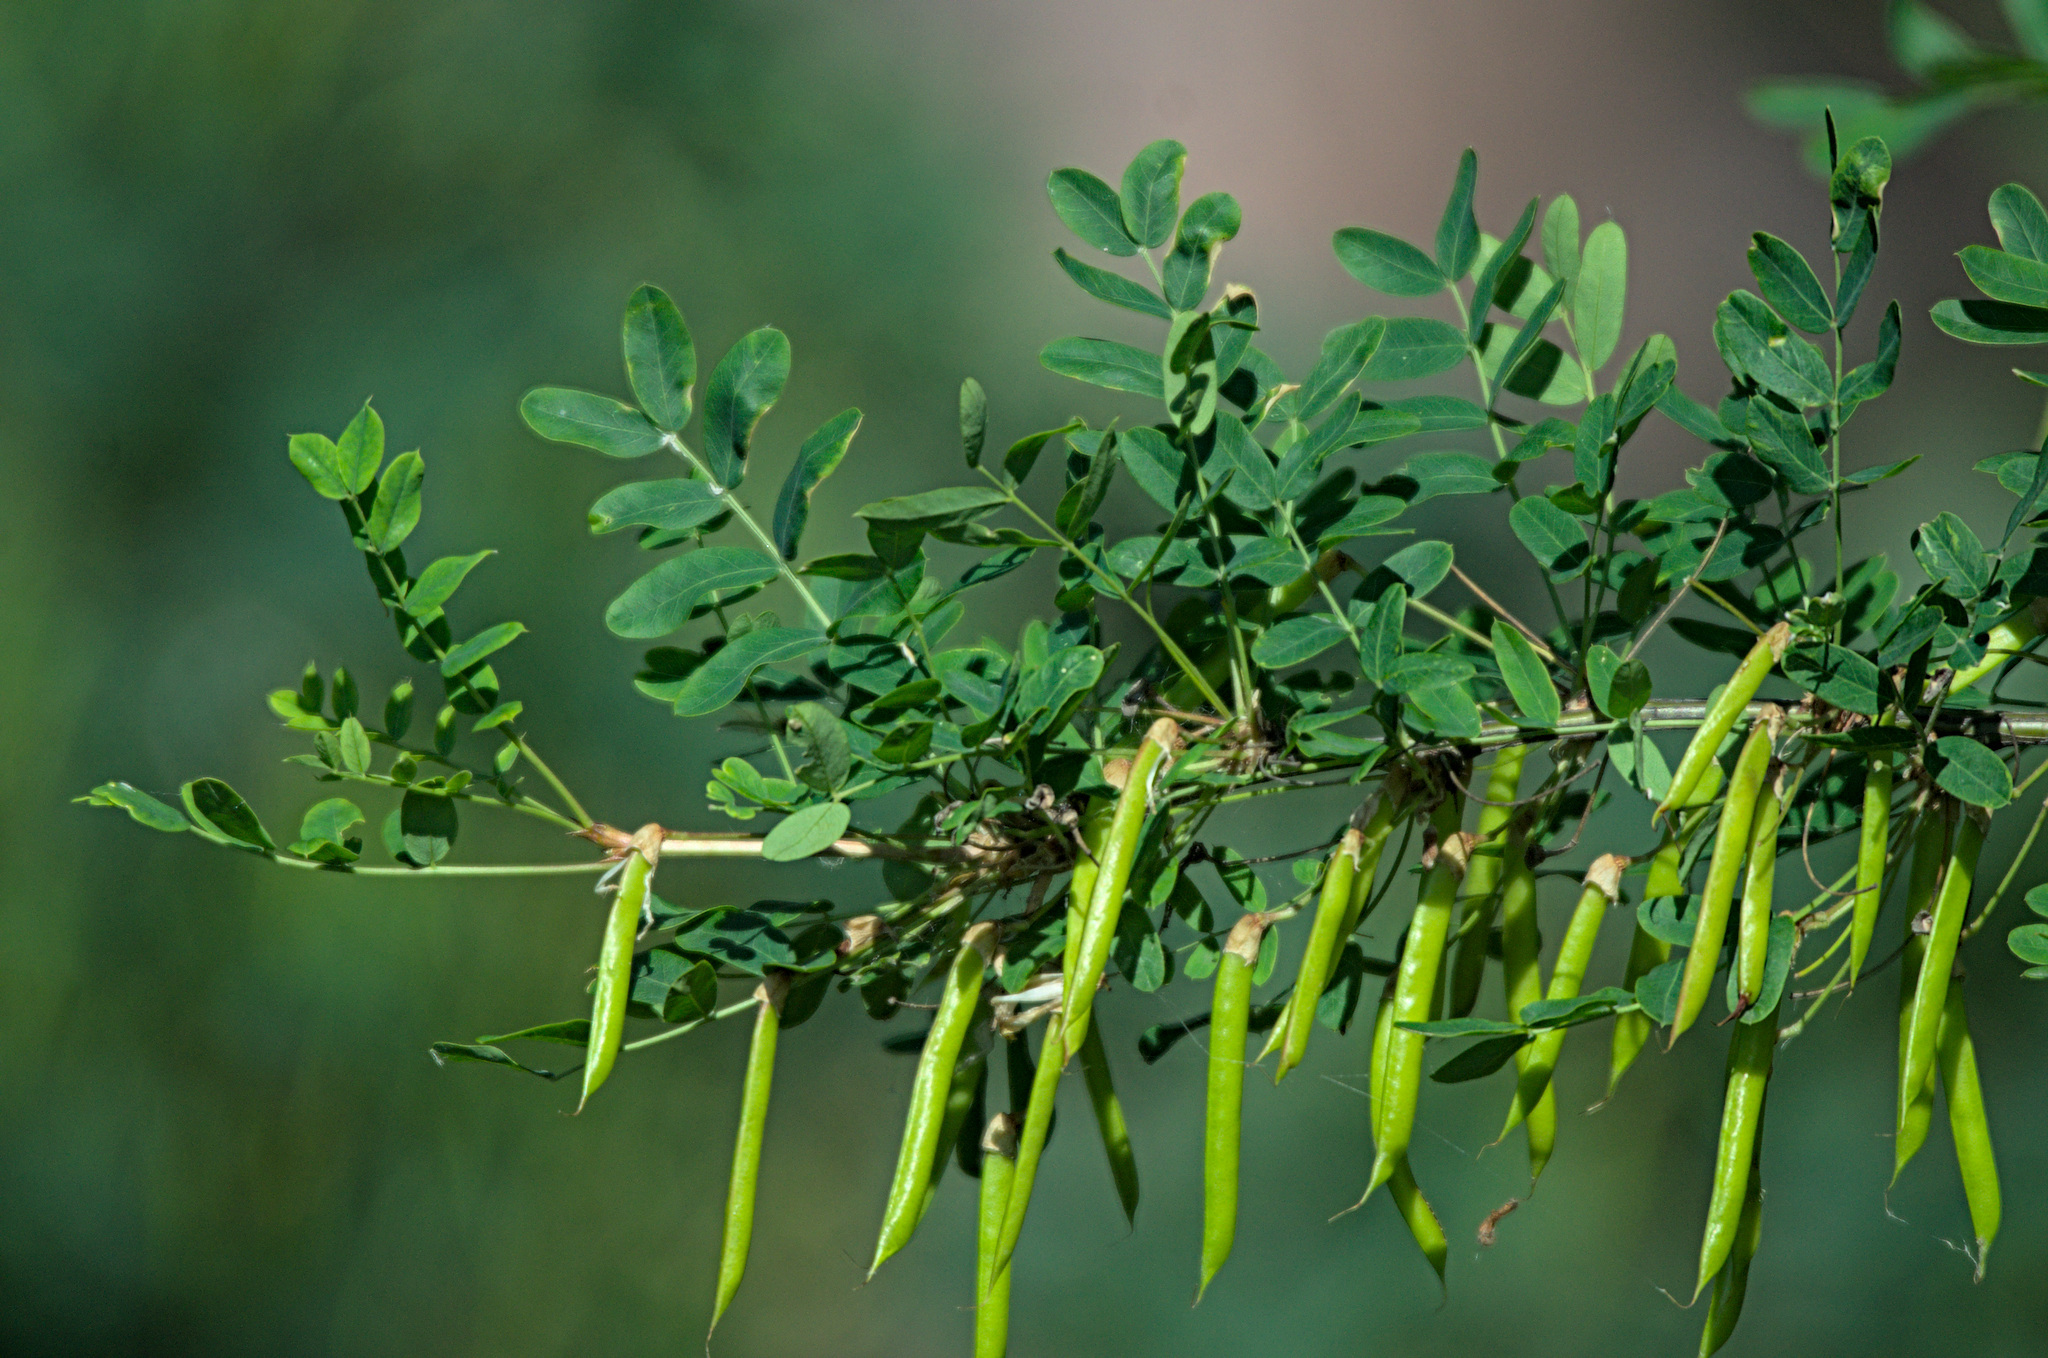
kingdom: Plantae
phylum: Tracheophyta
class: Magnoliopsida
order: Fabales
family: Fabaceae
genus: Caragana
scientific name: Caragana arborescens
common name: Siberian peashrub
